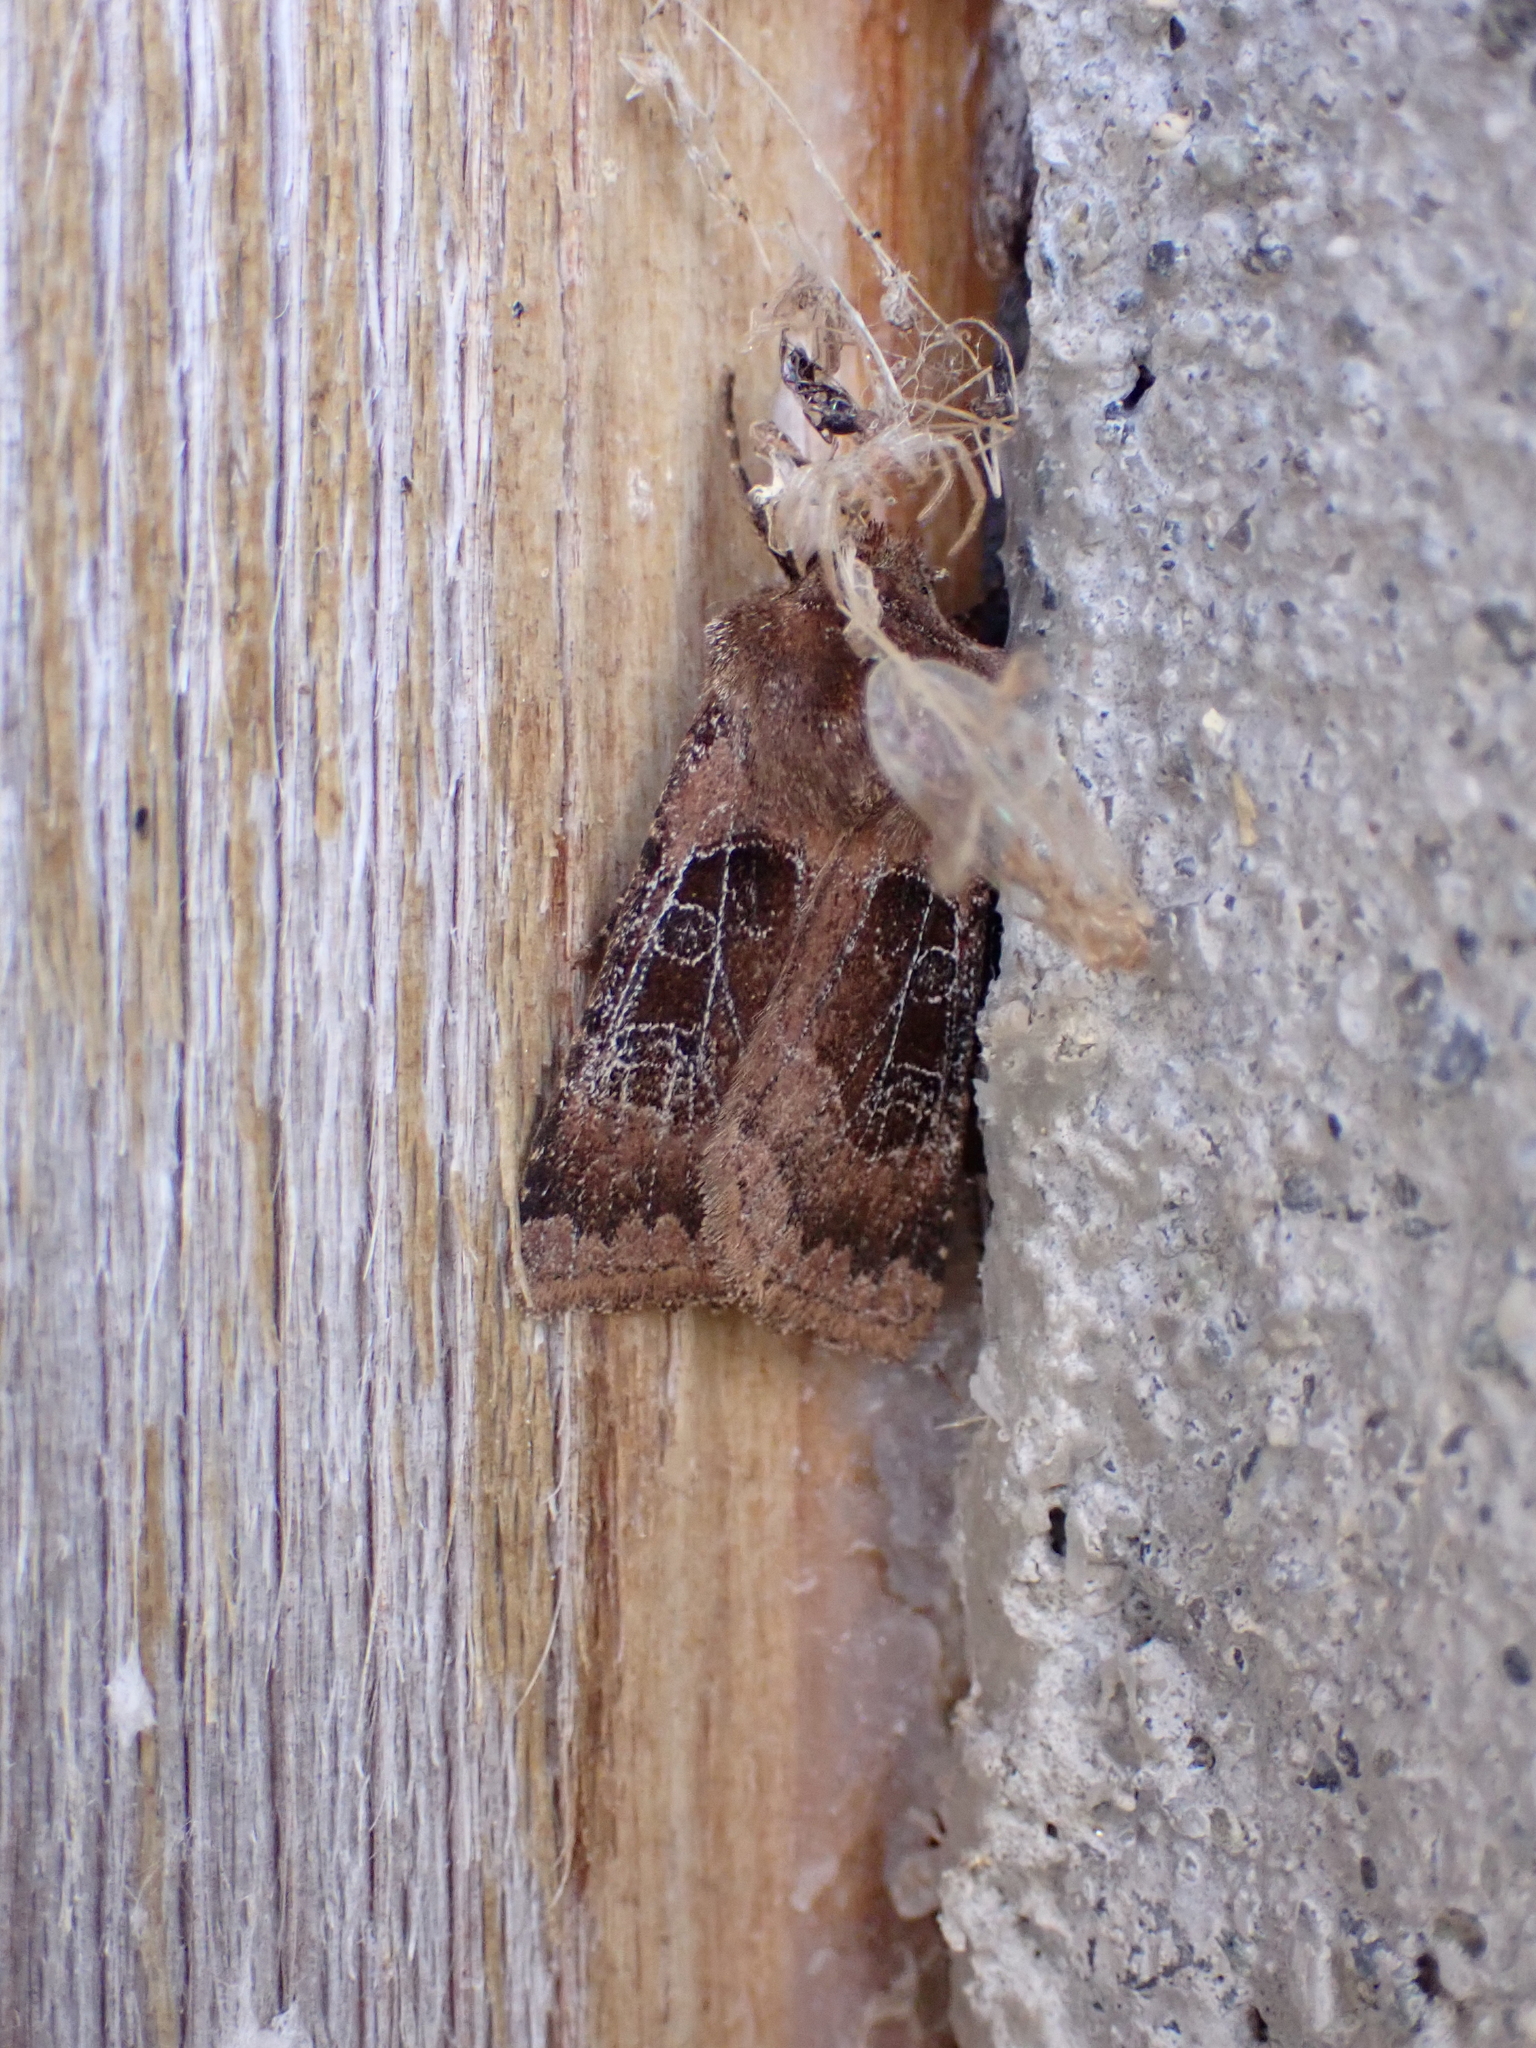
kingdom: Animalia
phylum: Arthropoda
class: Insecta
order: Lepidoptera
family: Noctuidae
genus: Chersotis
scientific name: Chersotis cuprea
